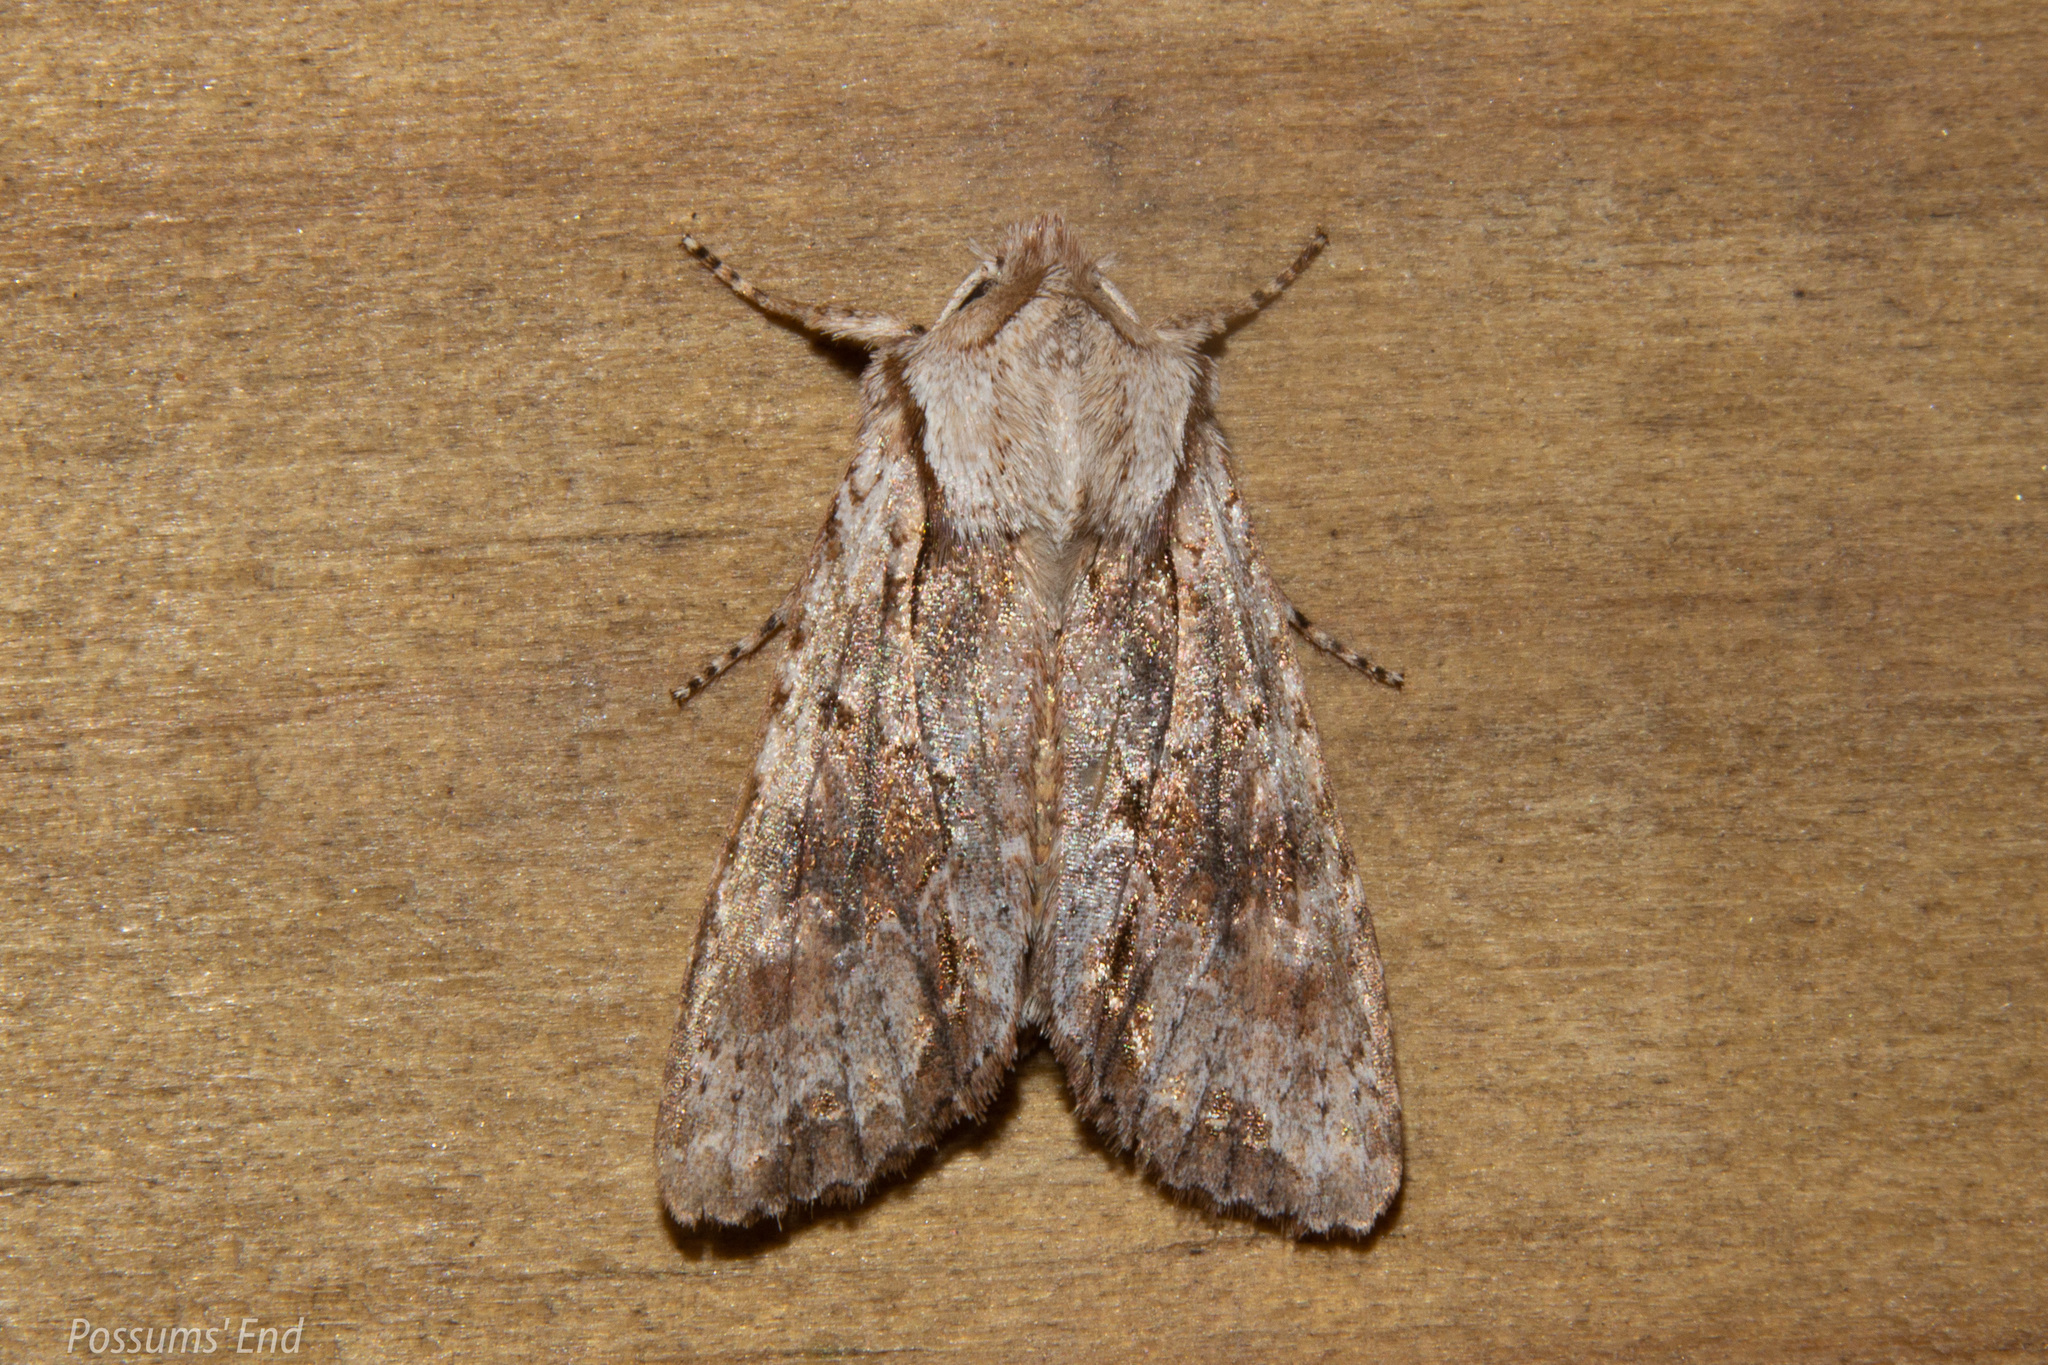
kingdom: Animalia
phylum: Arthropoda
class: Insecta
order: Lepidoptera
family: Noctuidae
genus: Ichneutica
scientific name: Ichneutica
